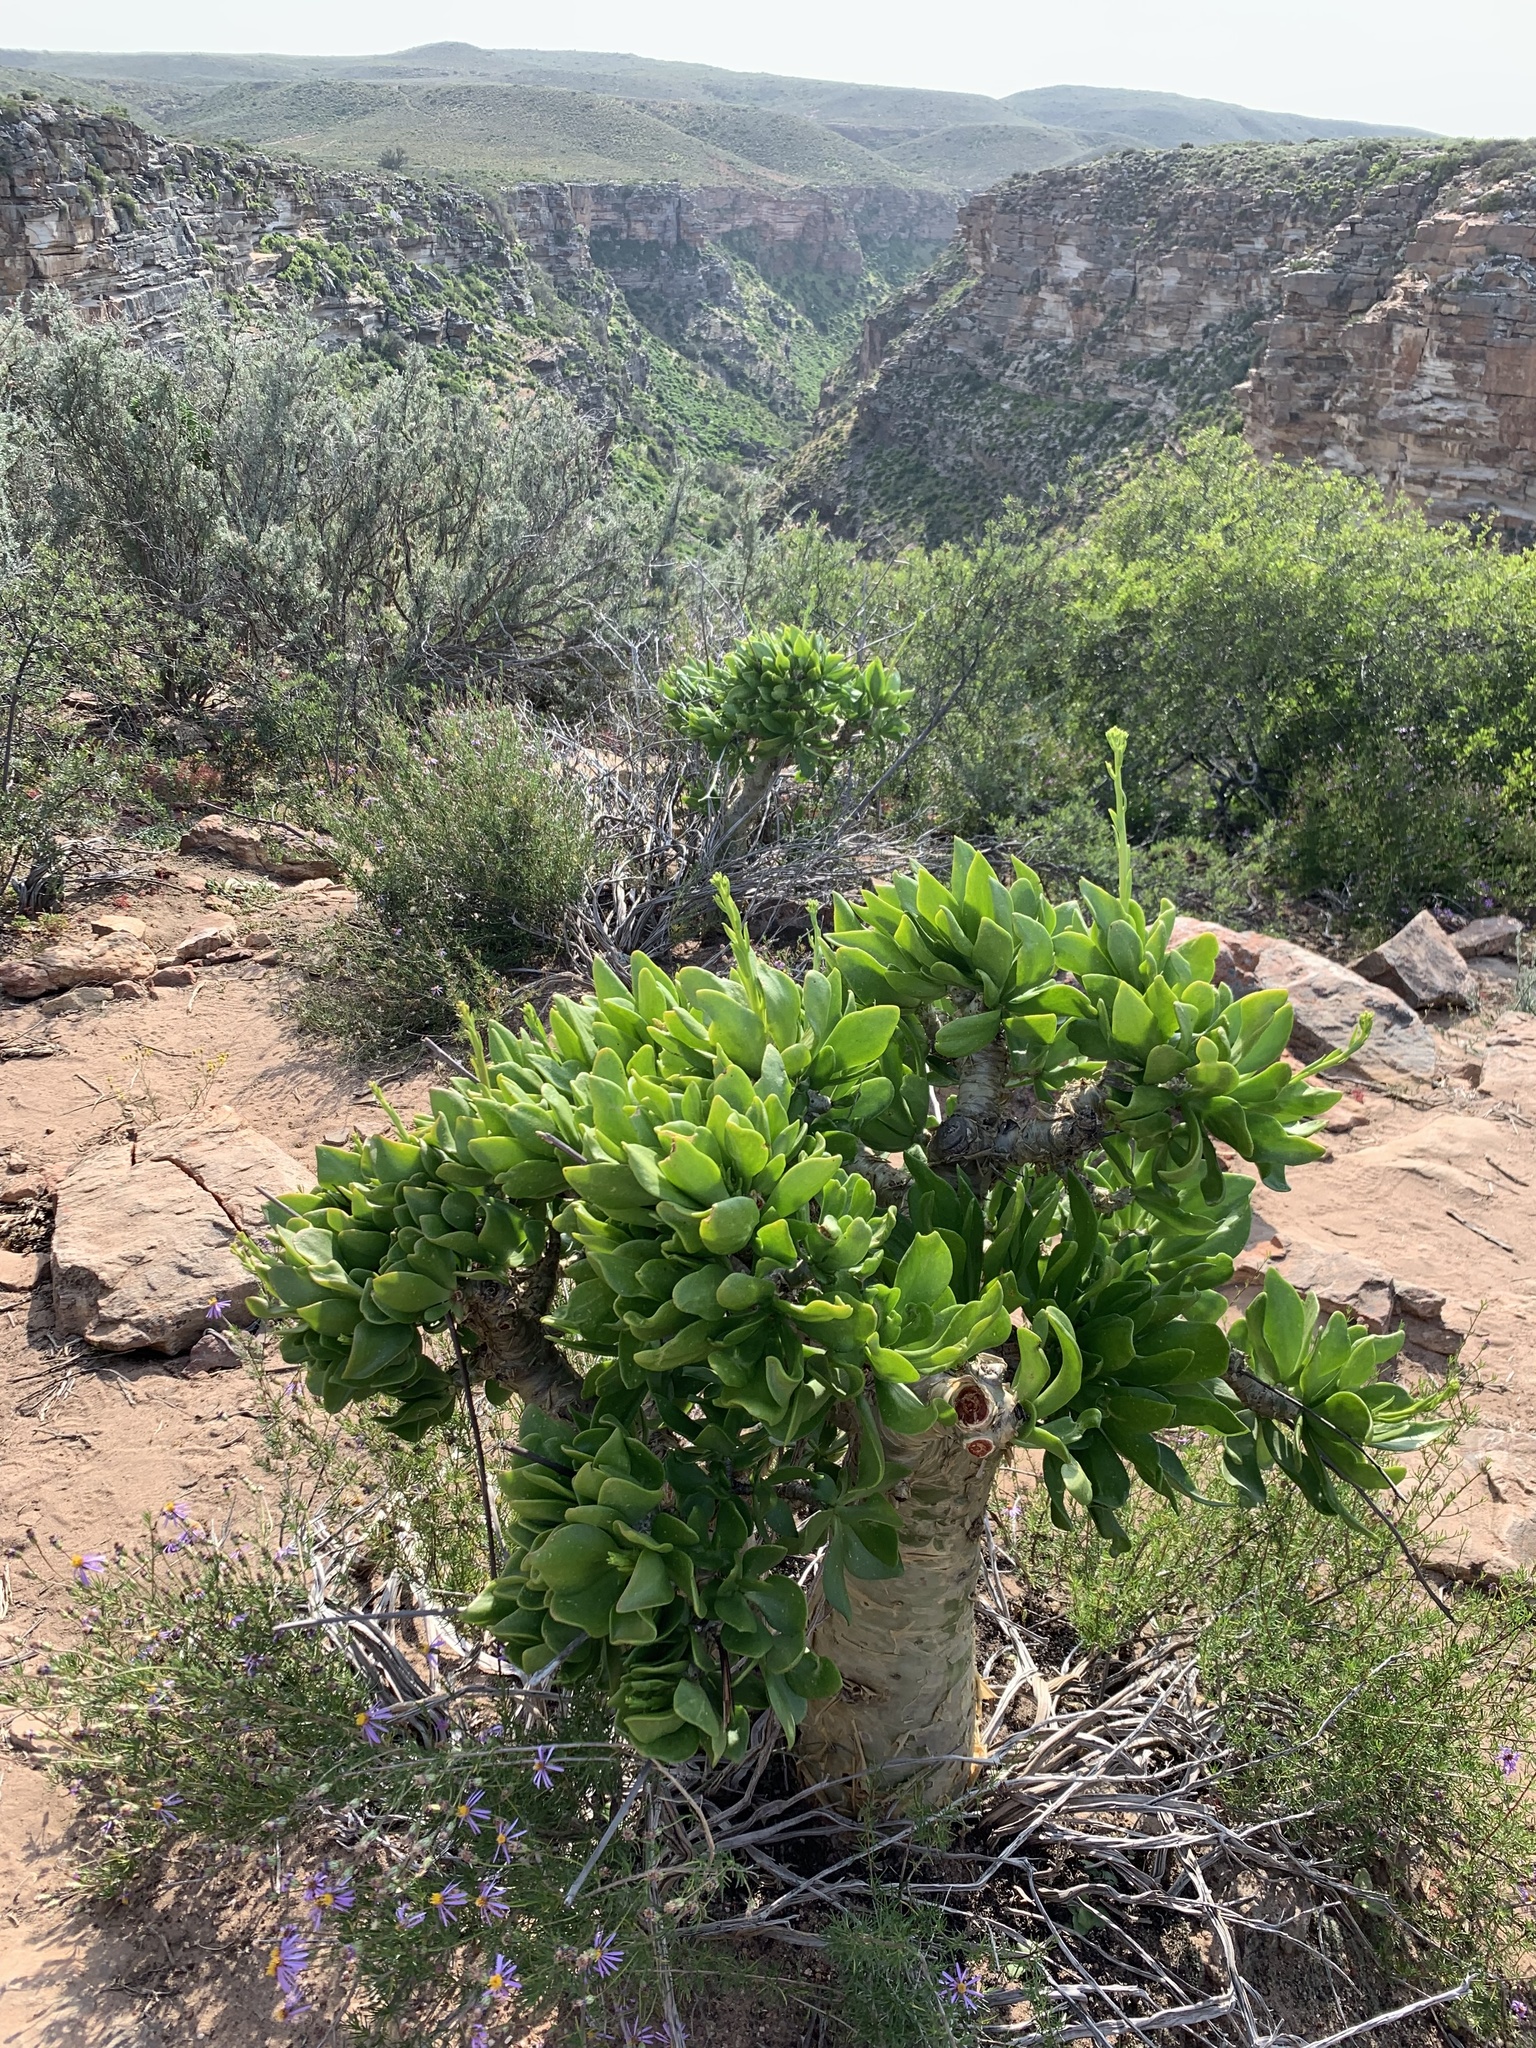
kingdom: Plantae
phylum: Tracheophyta
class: Magnoliopsida
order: Saxifragales
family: Crassulaceae
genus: Tylecodon
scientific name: Tylecodon paniculatus
